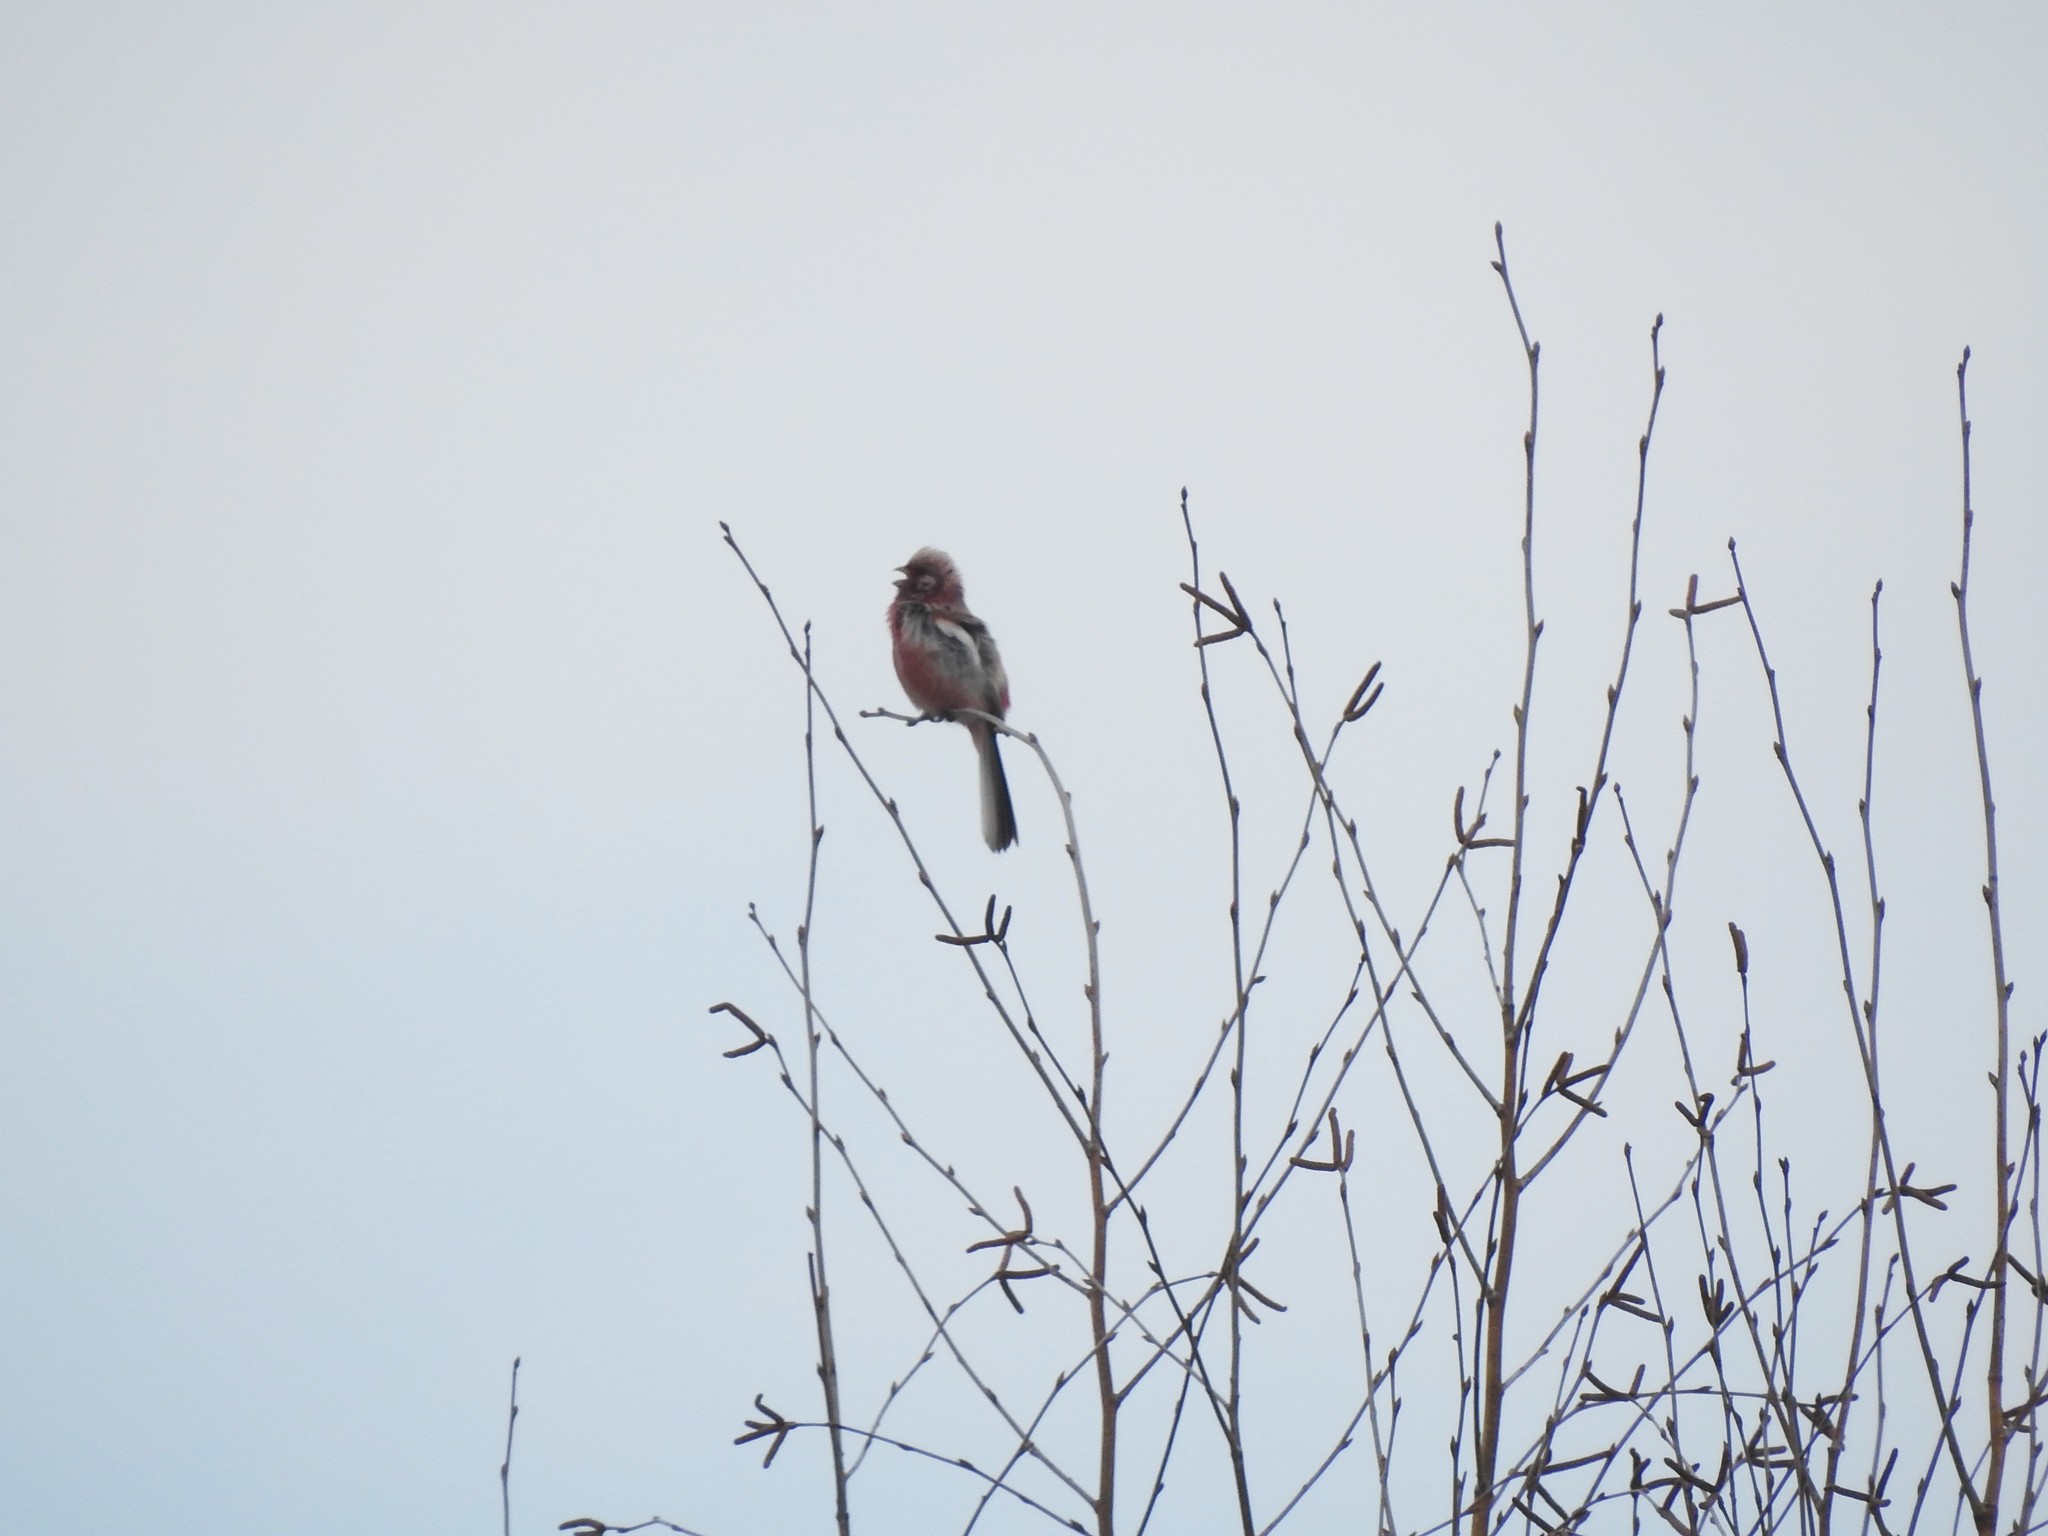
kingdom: Animalia
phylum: Chordata
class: Aves
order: Passeriformes
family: Fringillidae
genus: Carpodacus
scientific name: Carpodacus sibiricus
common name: Long-tailed rosefinch
